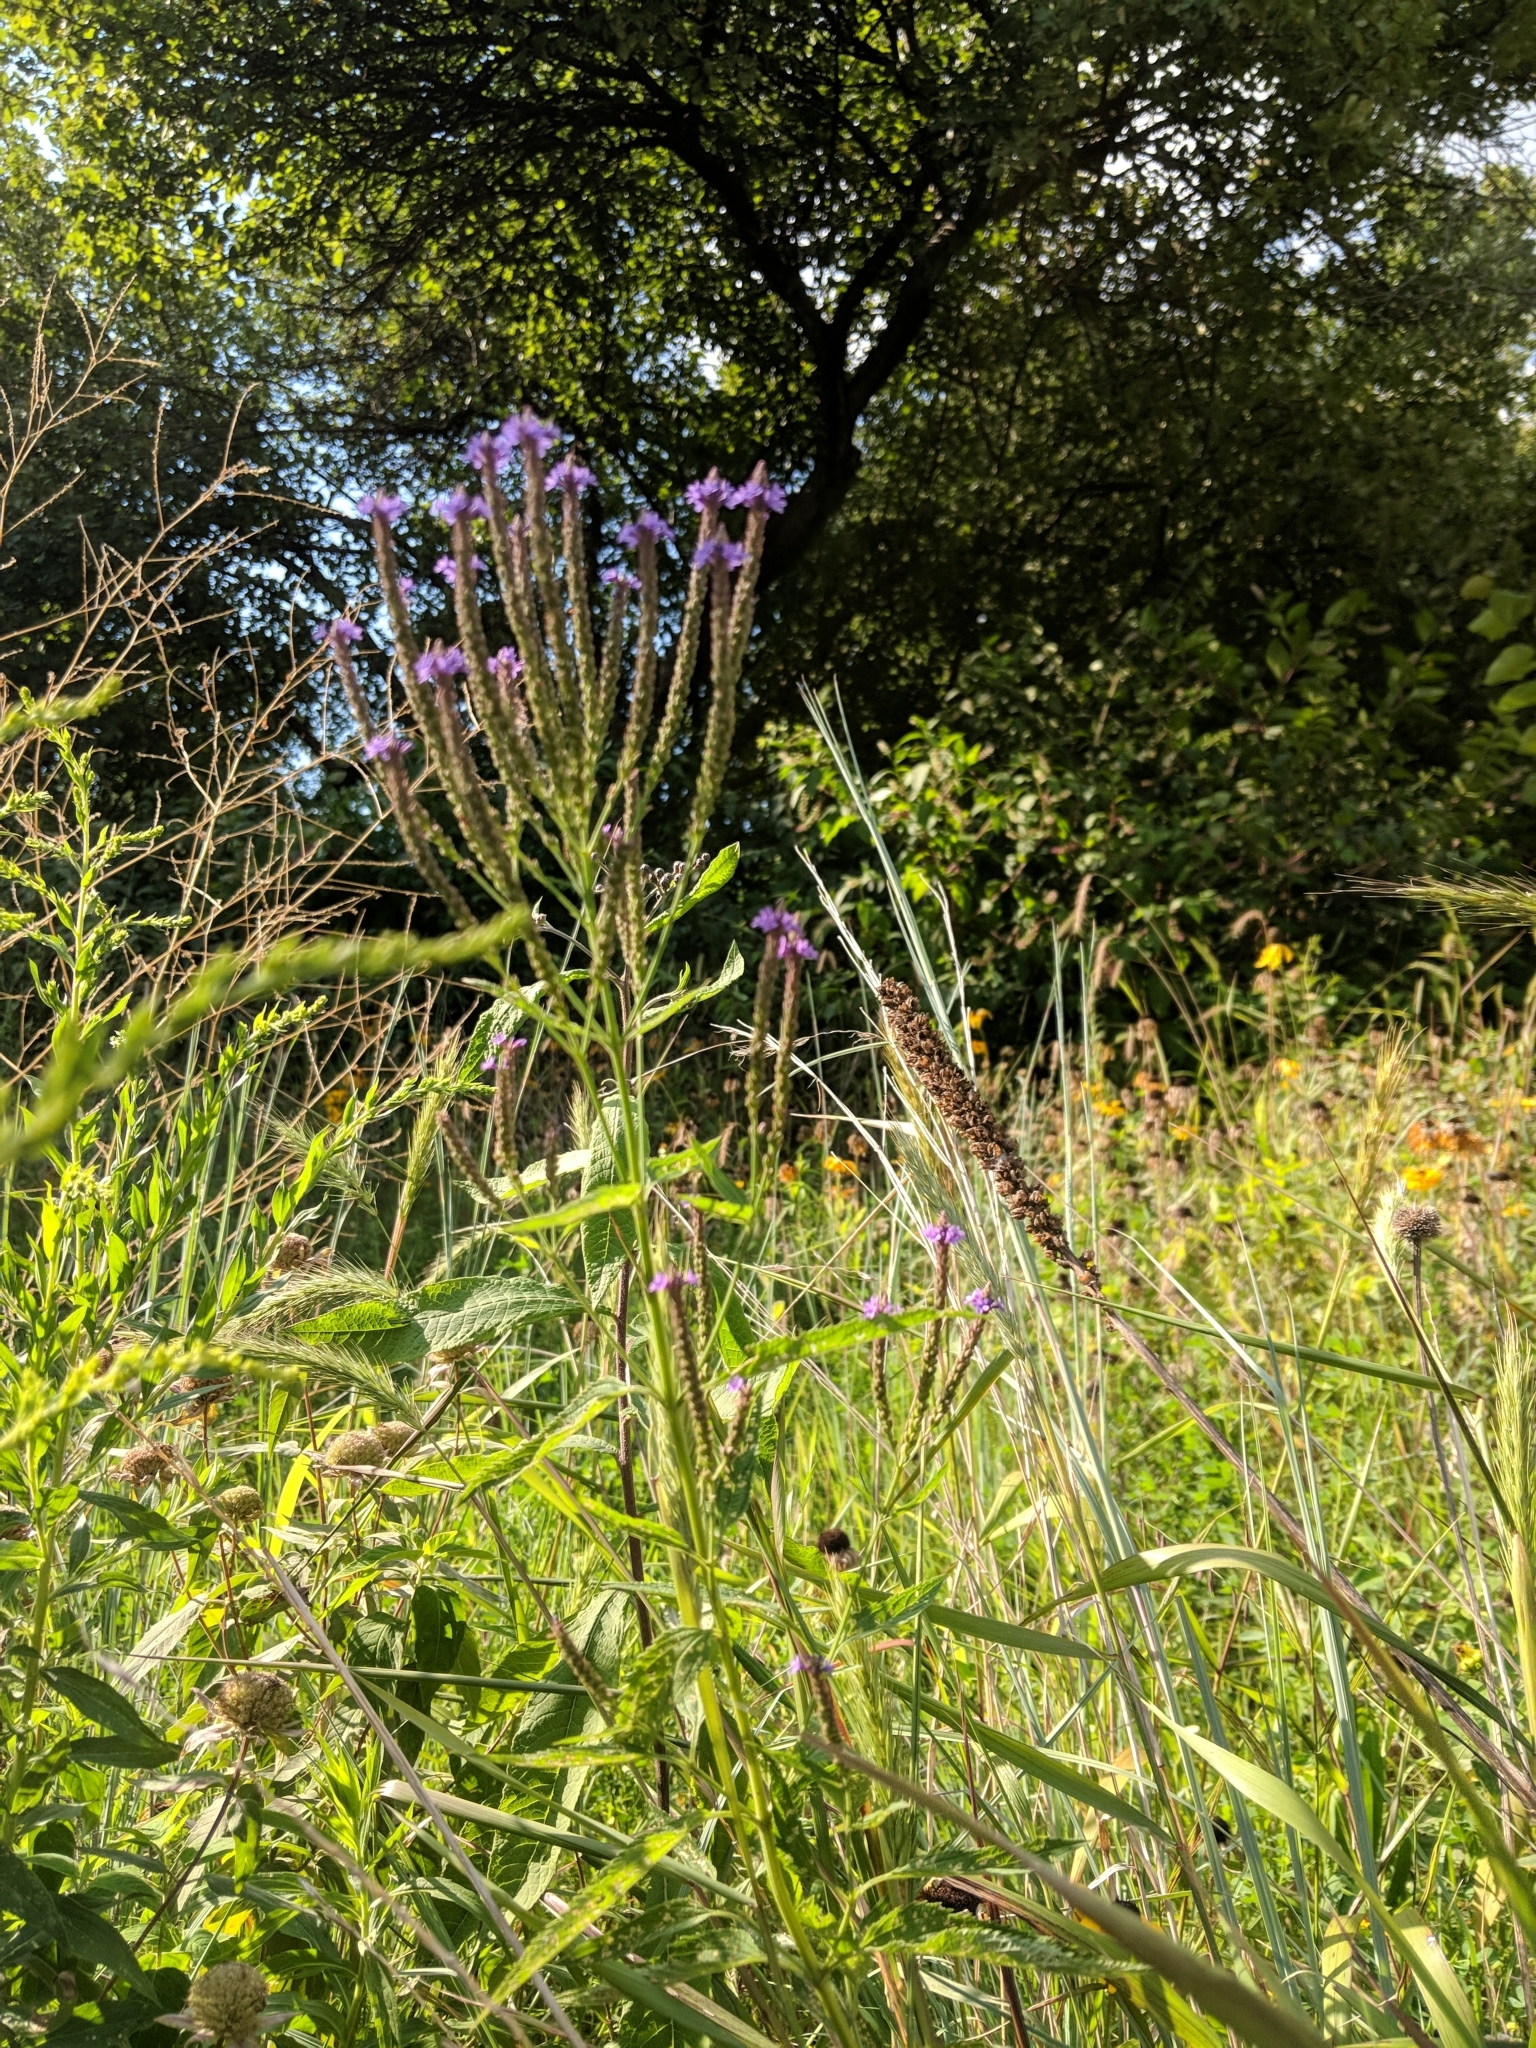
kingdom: Plantae
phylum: Tracheophyta
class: Magnoliopsida
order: Lamiales
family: Verbenaceae
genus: Verbena
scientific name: Verbena hastata
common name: American blue vervain
